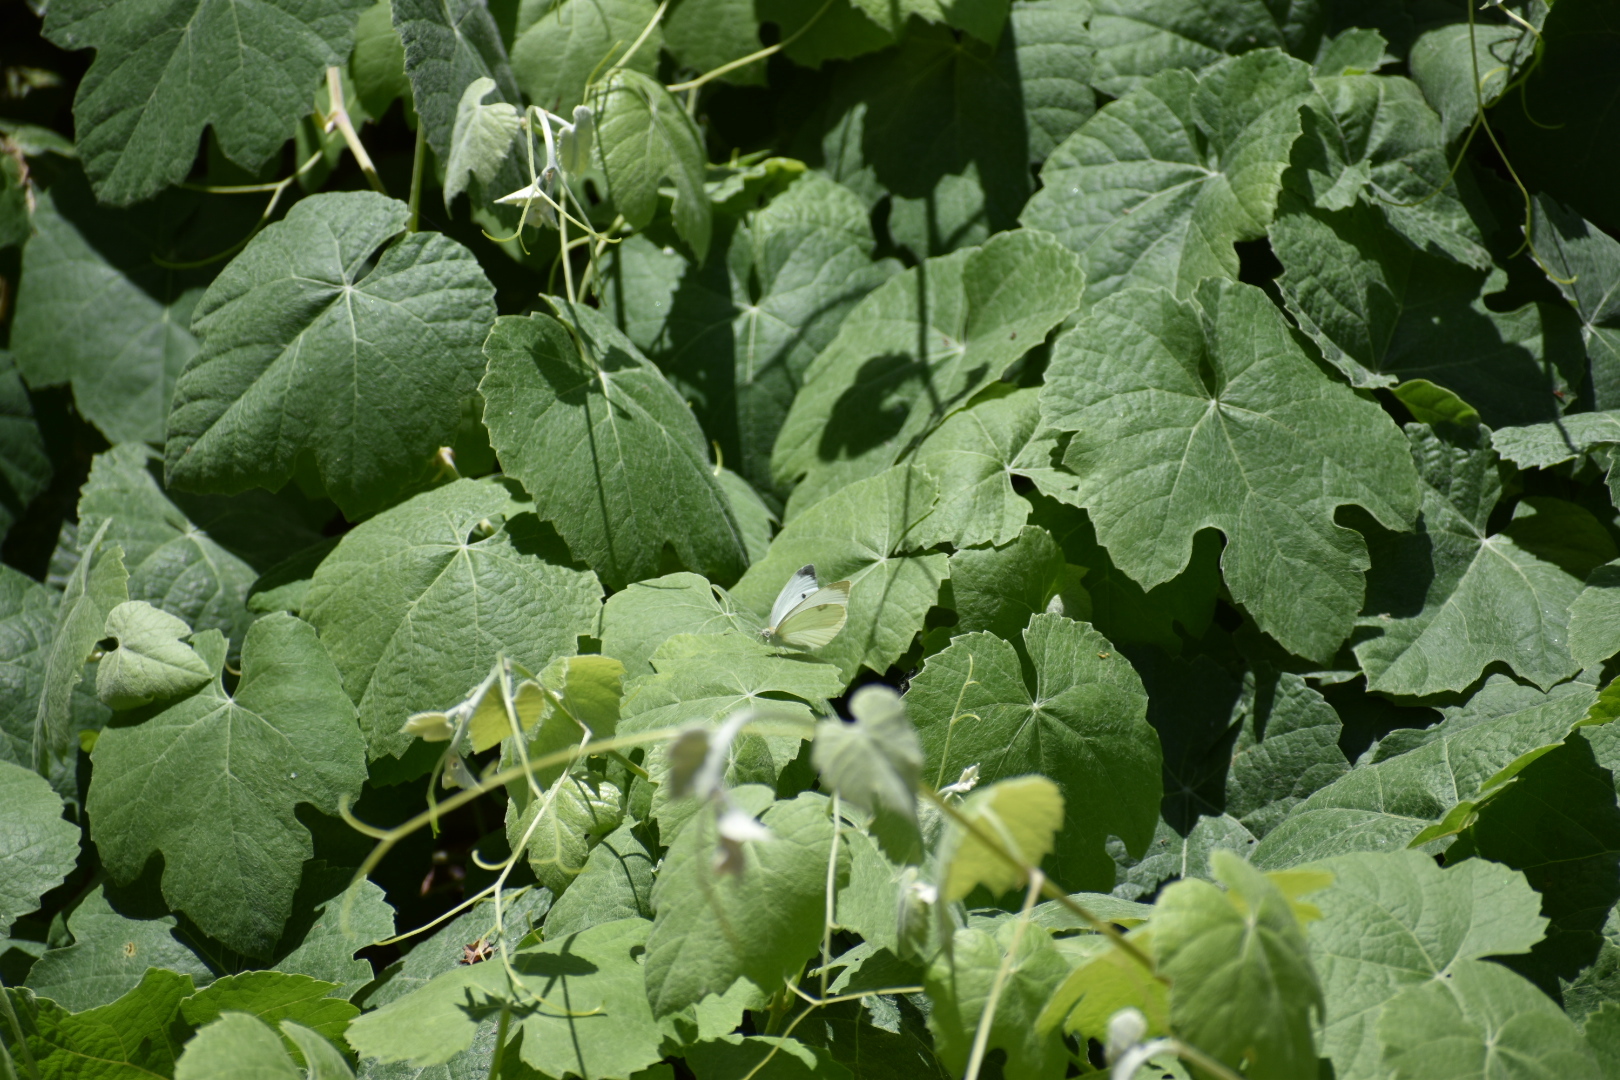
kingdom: Animalia
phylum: Arthropoda
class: Insecta
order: Lepidoptera
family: Pieridae
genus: Pieris
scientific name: Pieris rapae
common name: Small white
